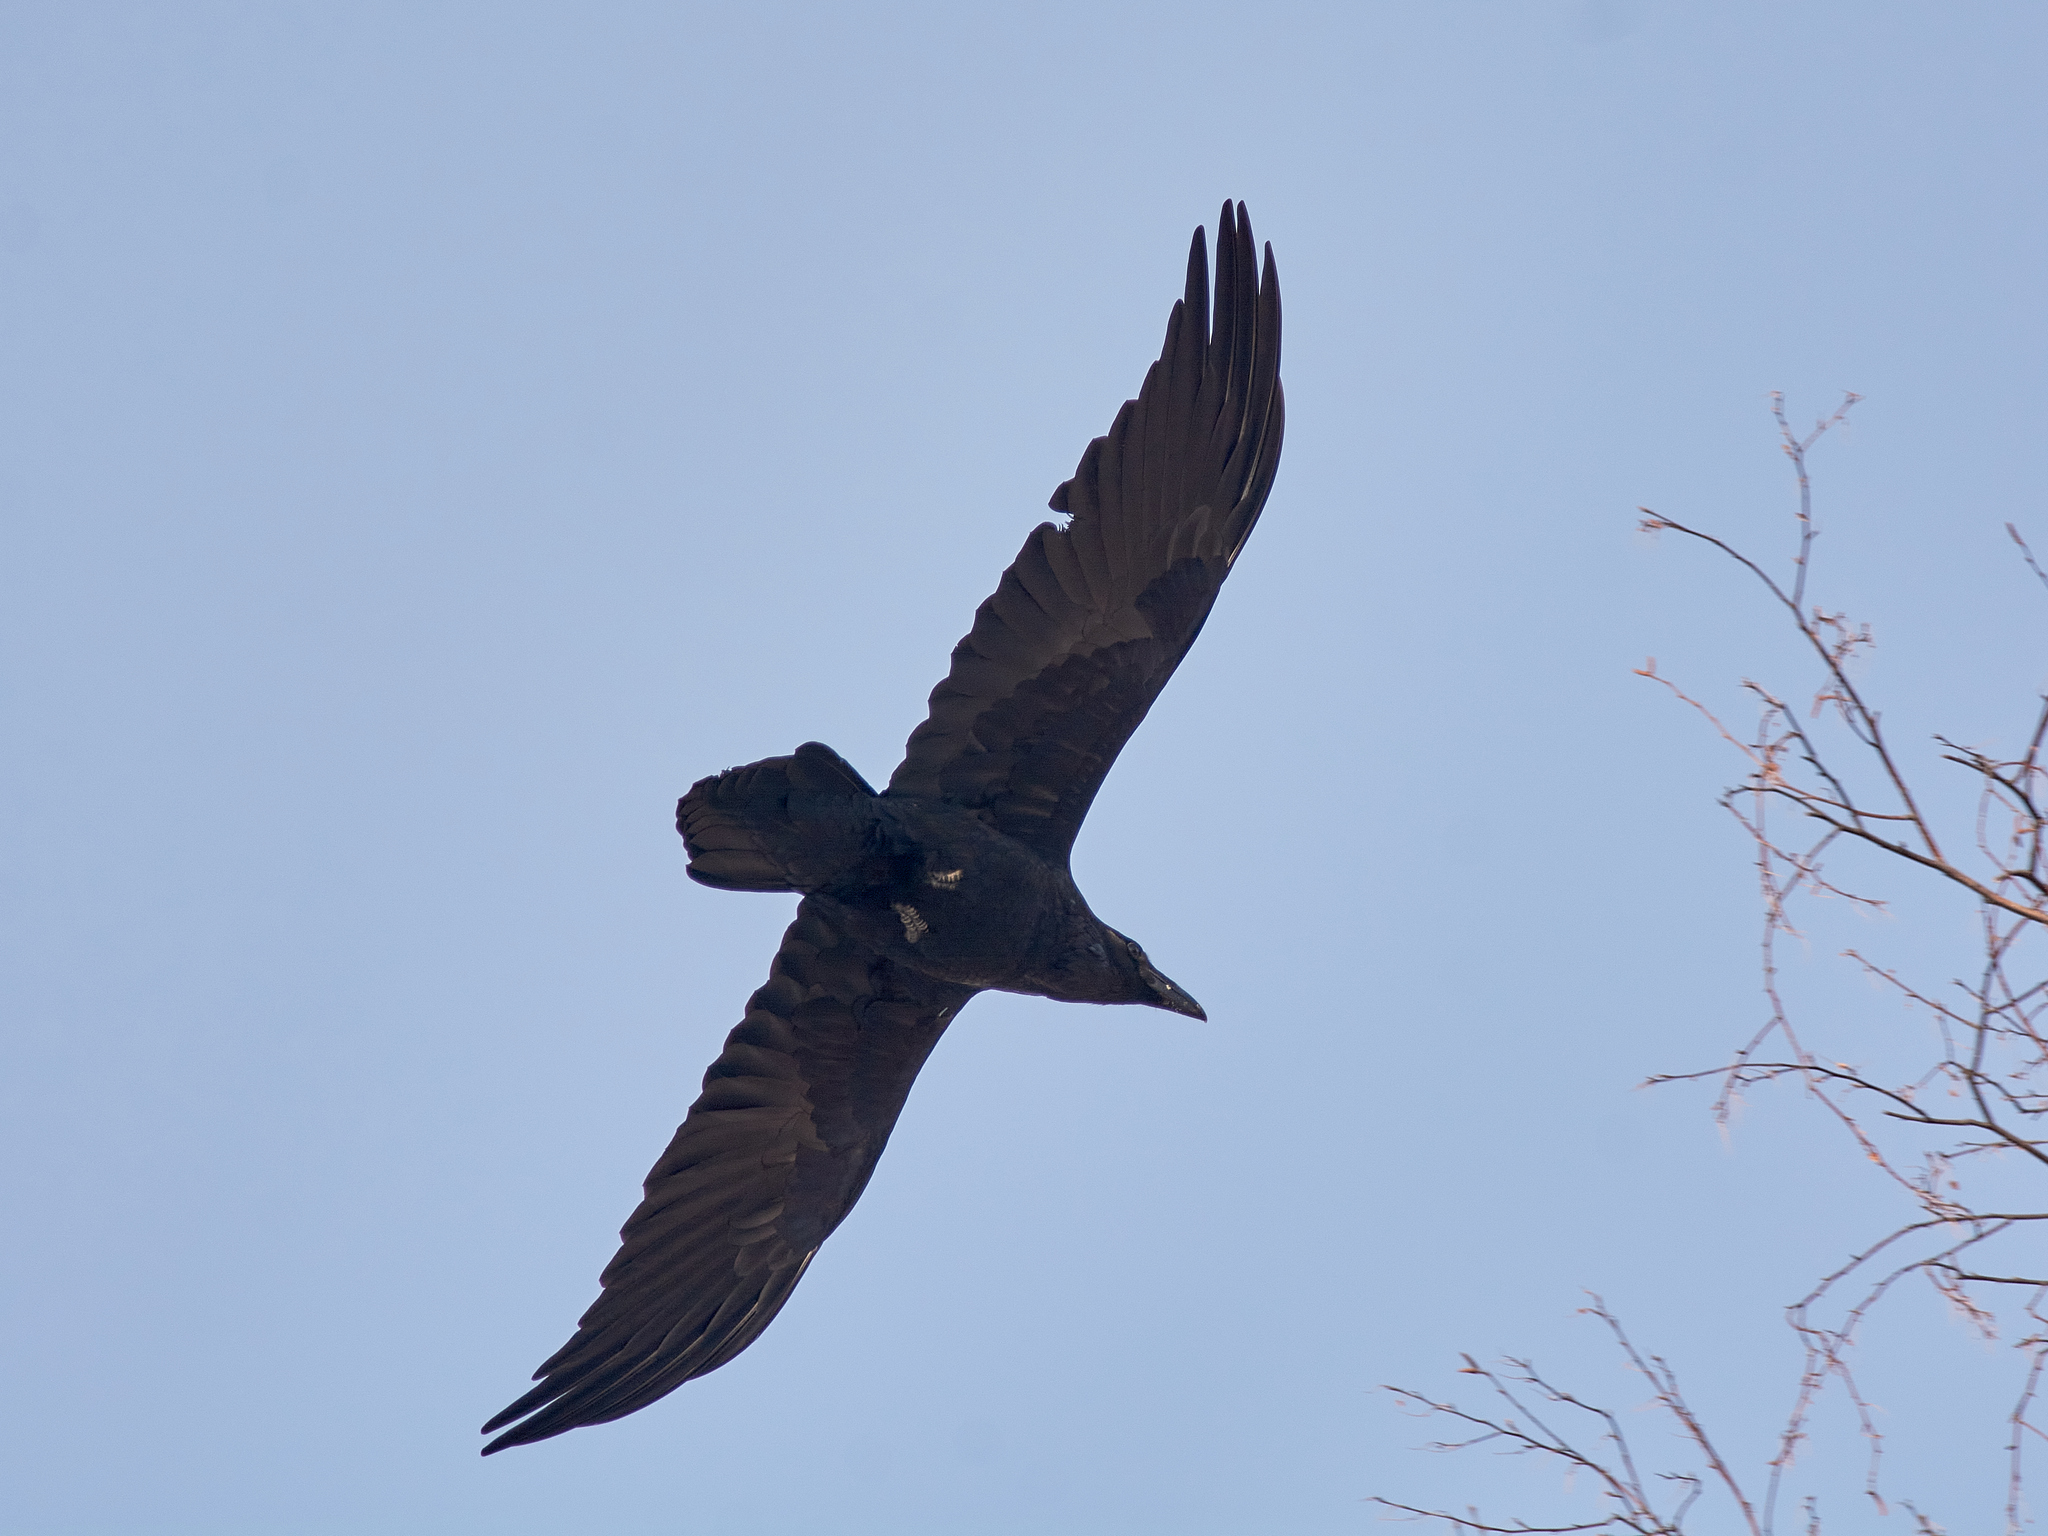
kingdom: Animalia
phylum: Chordata
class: Aves
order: Passeriformes
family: Corvidae
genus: Corvus
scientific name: Corvus corax
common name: Common raven
